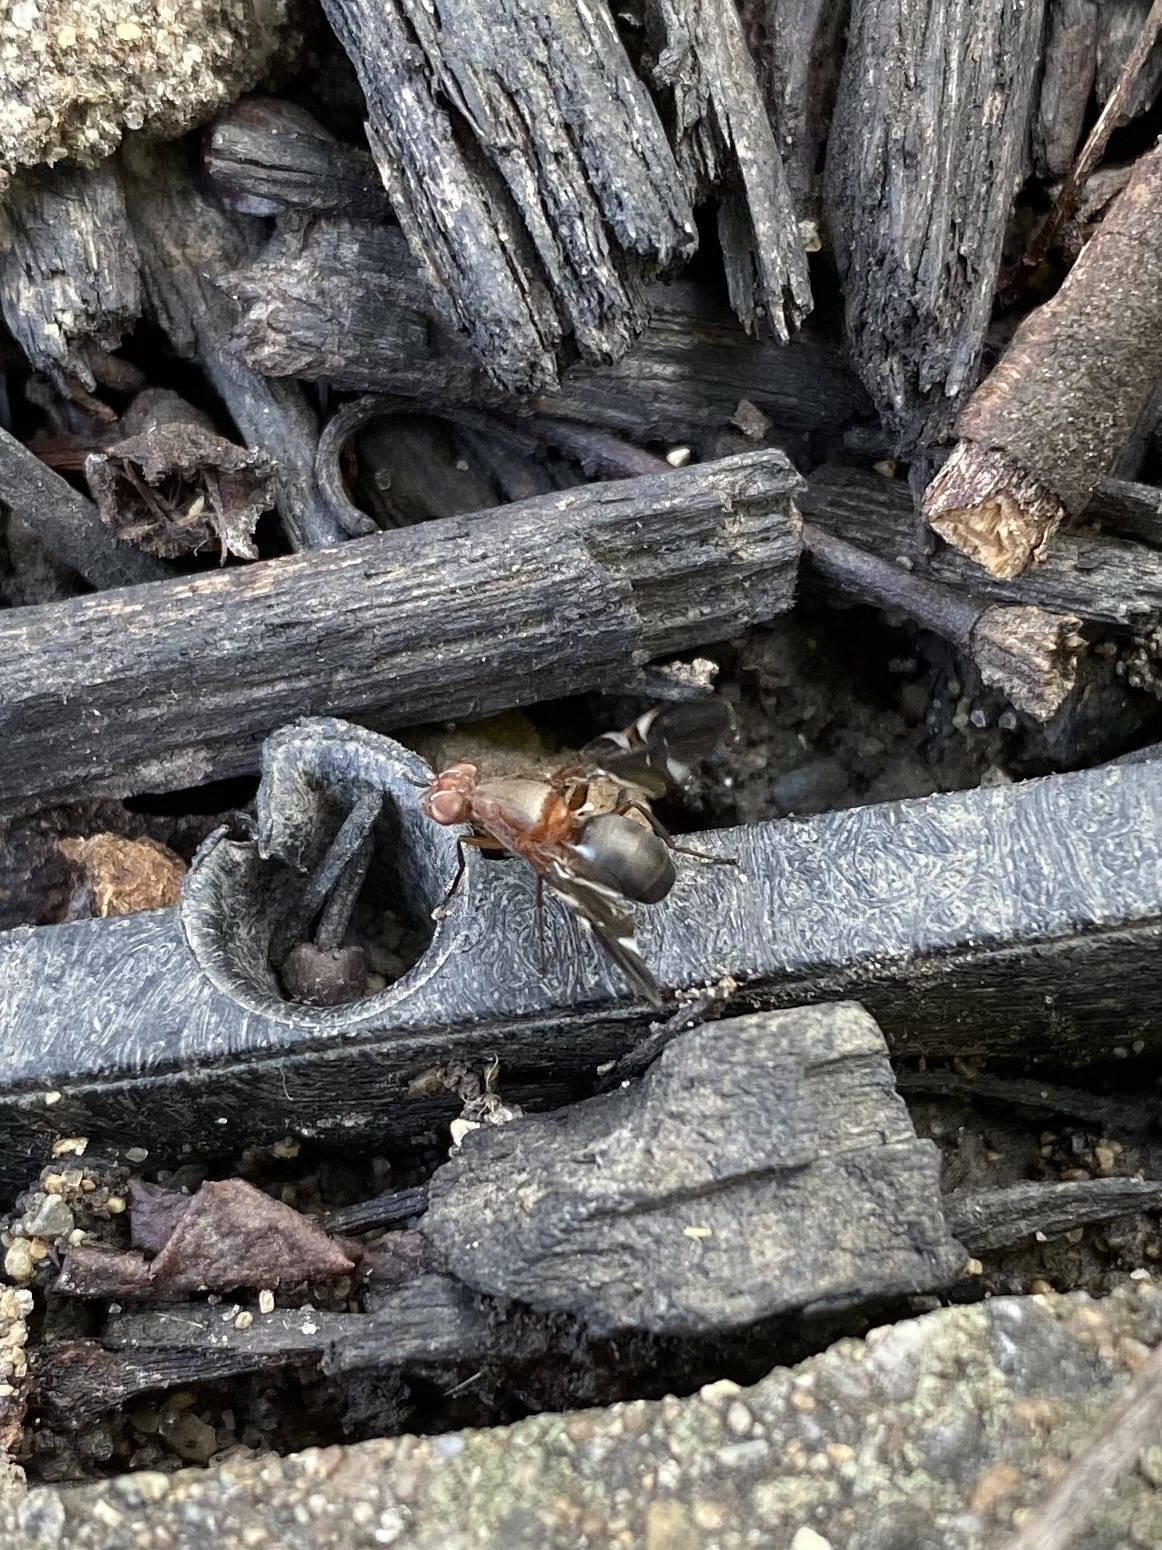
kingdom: Animalia
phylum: Arthropoda
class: Insecta
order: Diptera
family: Ulidiidae
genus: Delphinia
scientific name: Delphinia picta
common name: Common picture-winged fly
